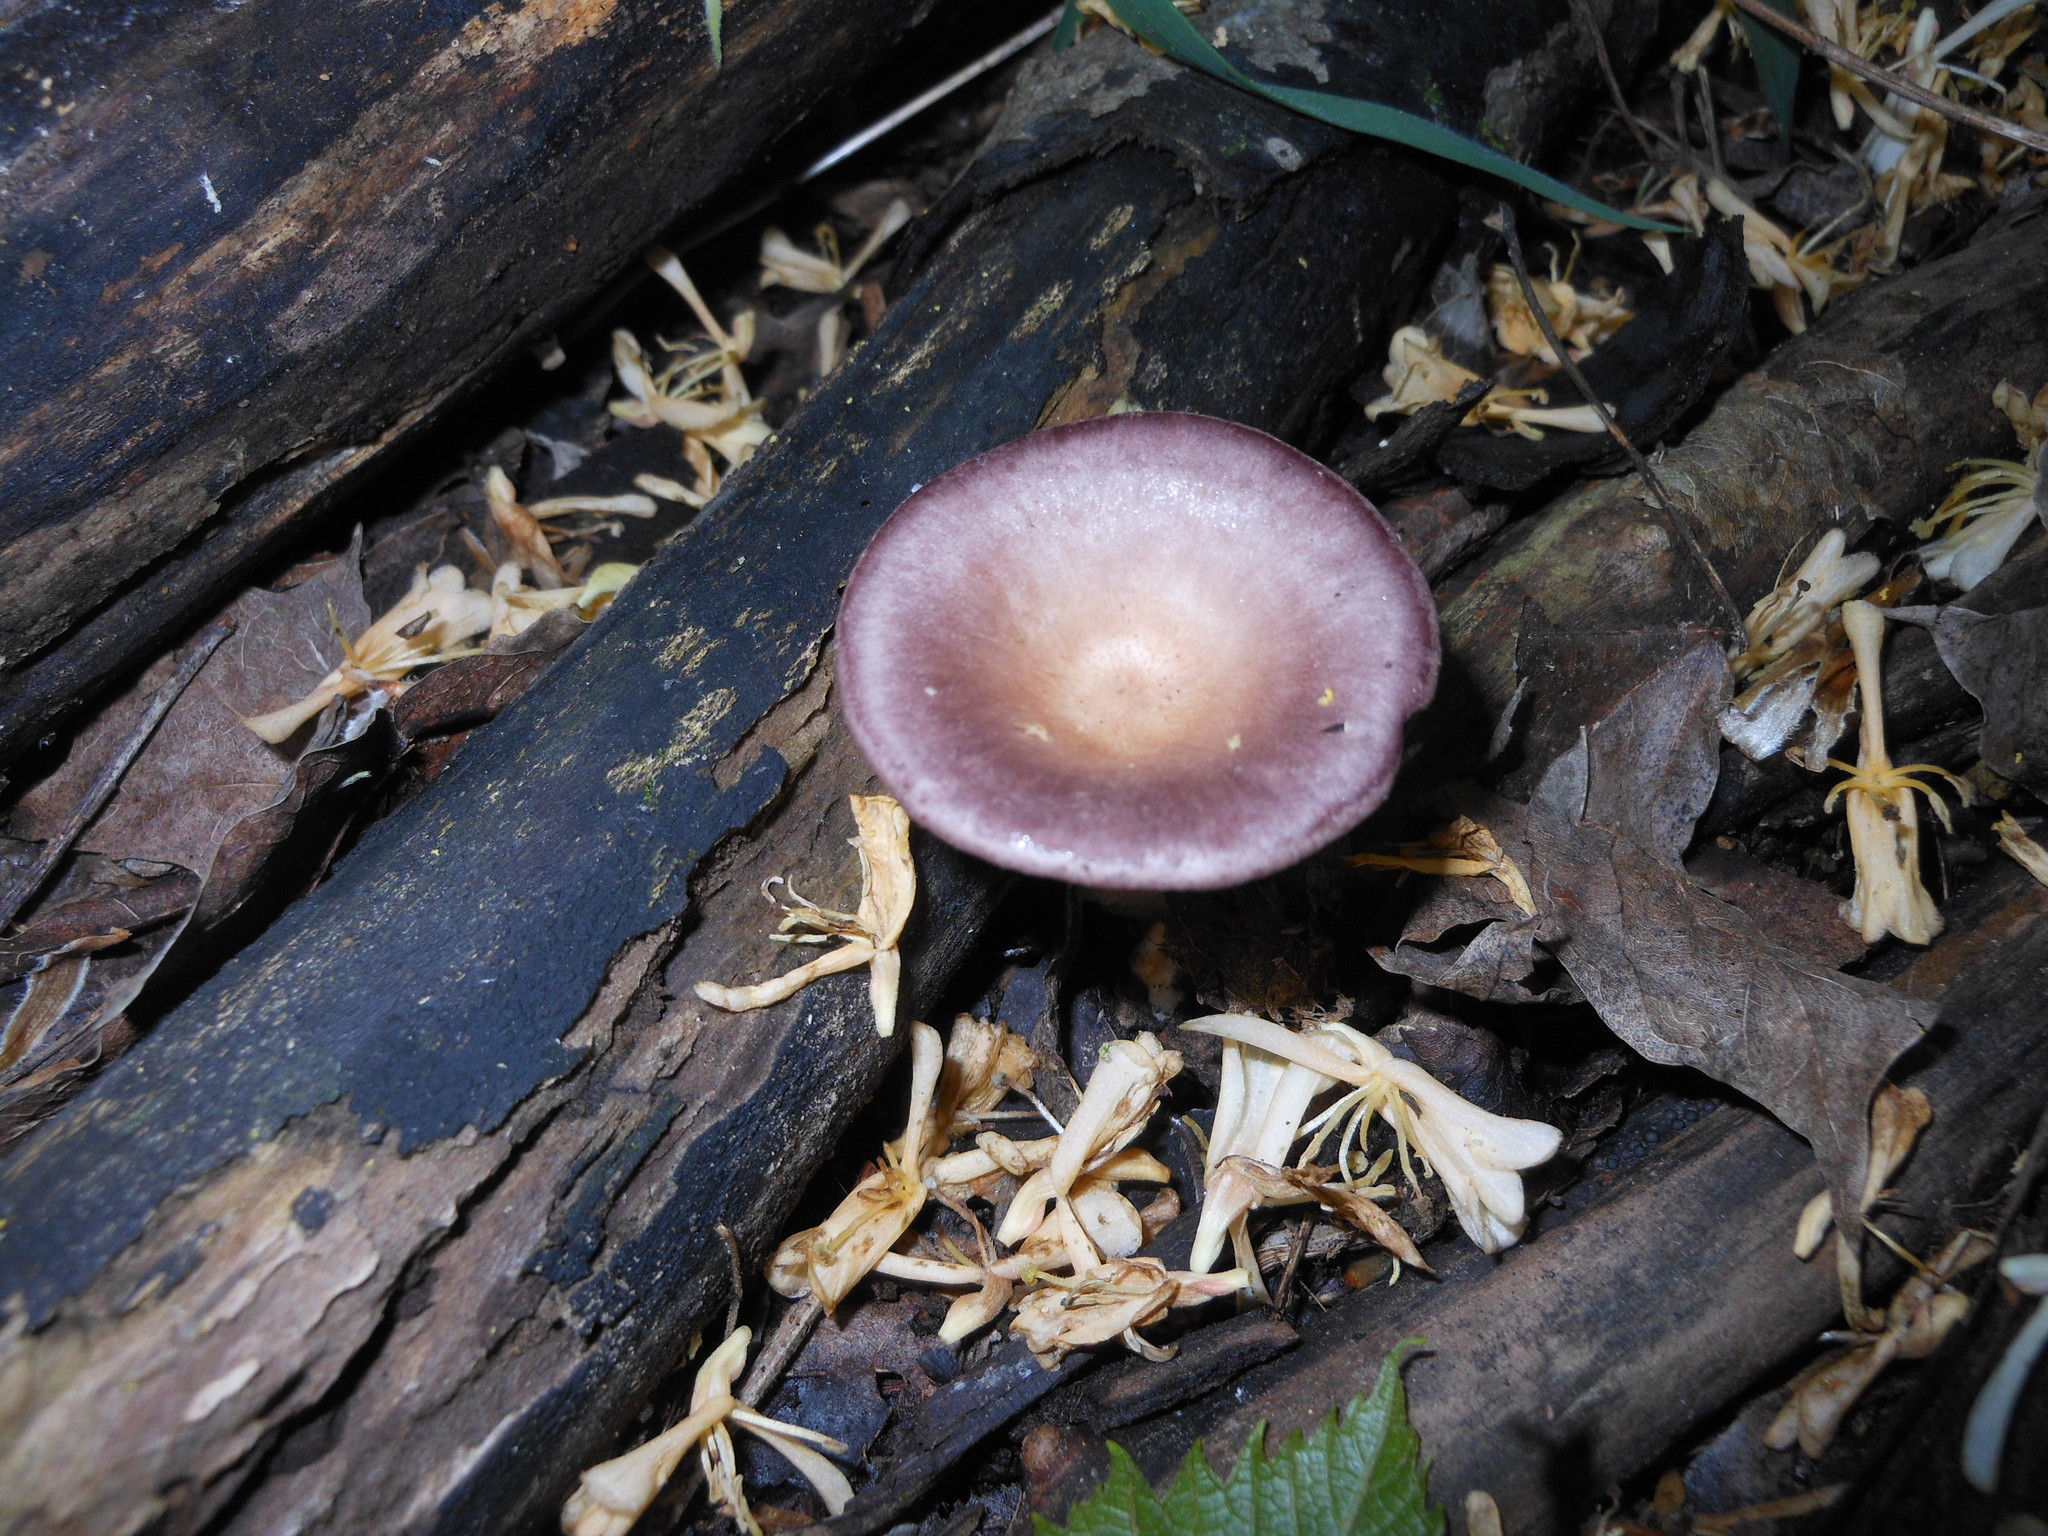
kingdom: Fungi
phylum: Basidiomycota
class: Agaricomycetes
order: Polyporales
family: Panaceae
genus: Panus
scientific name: Panus conchatus
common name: Lilac oysterling
